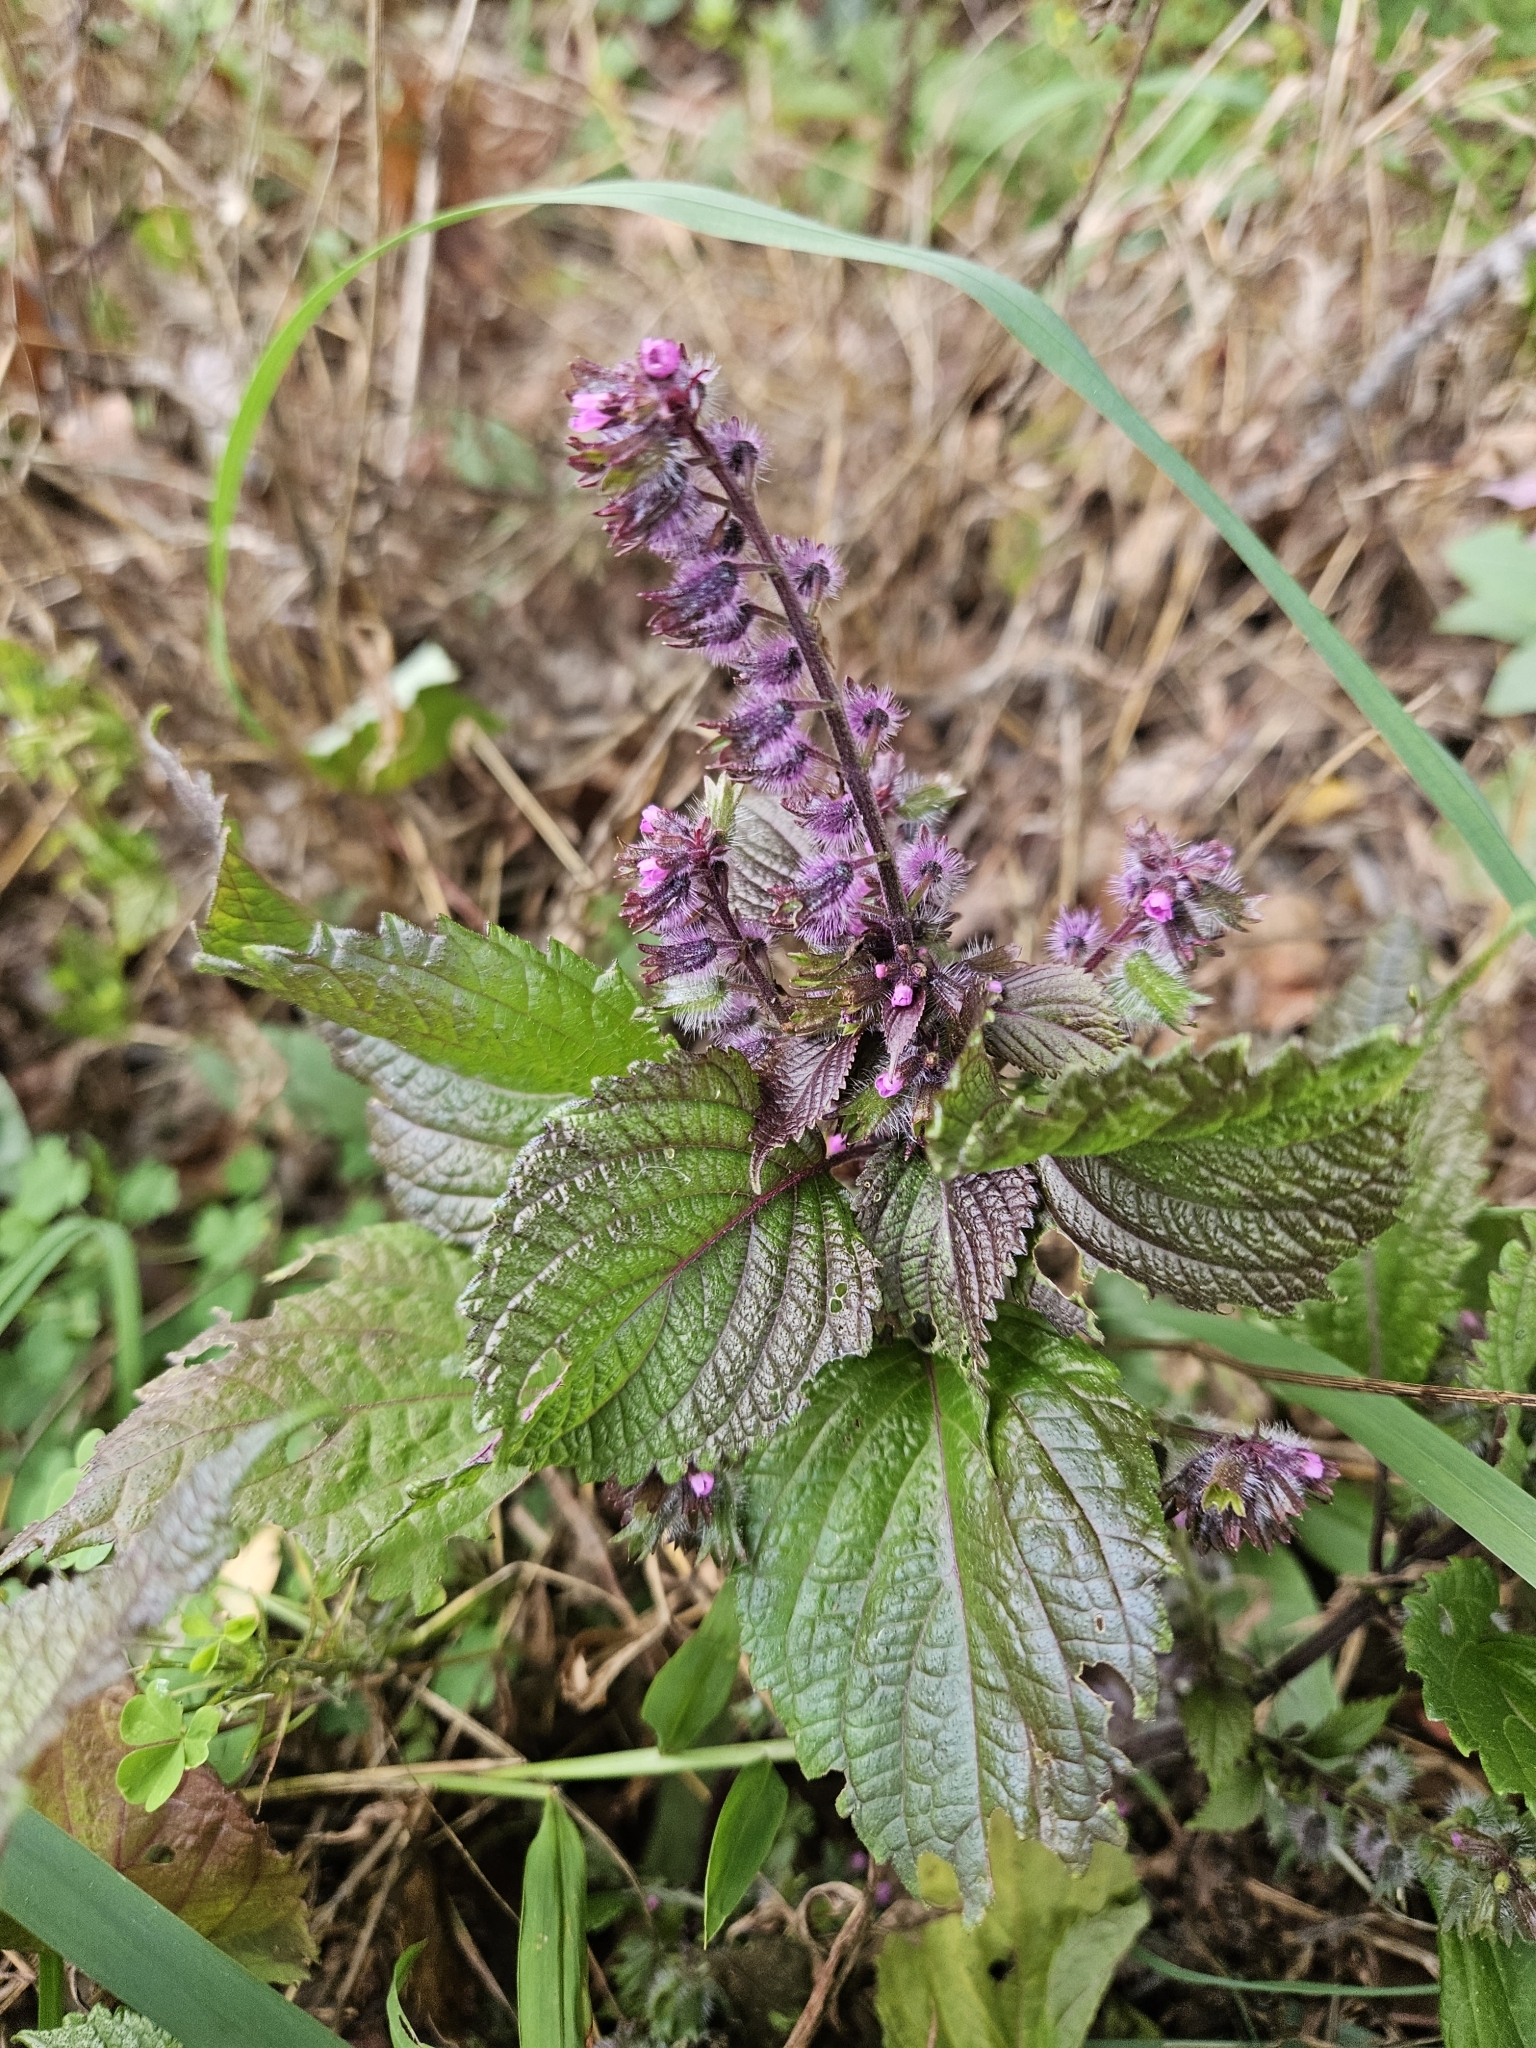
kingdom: Plantae
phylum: Tracheophyta
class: Magnoliopsida
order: Lamiales
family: Lamiaceae
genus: Perilla
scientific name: Perilla frutescens
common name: Perilla
